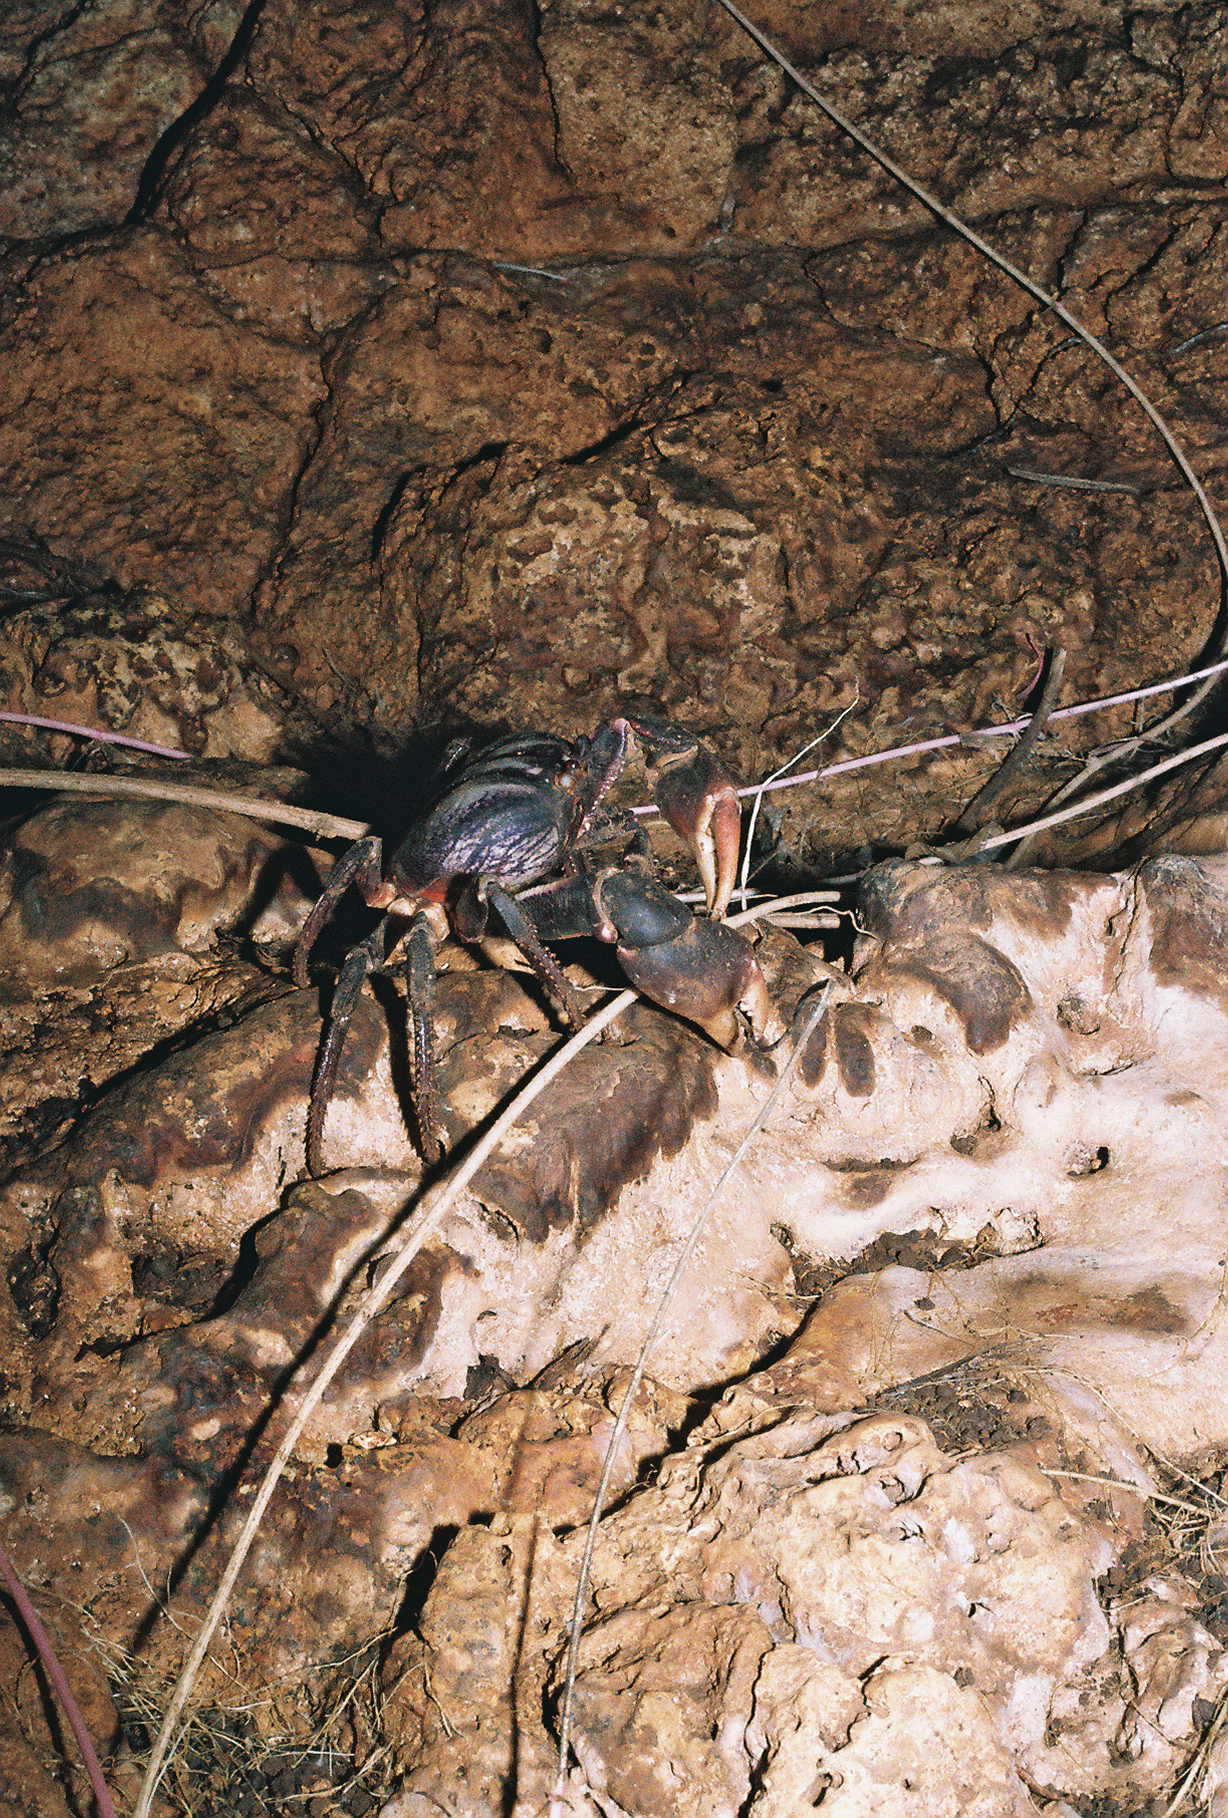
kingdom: Animalia
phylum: Arthropoda
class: Malacostraca
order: Decapoda
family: Gecarcinidae
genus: Gecarcinus
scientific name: Gecarcinus ruricola
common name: Black land crab
